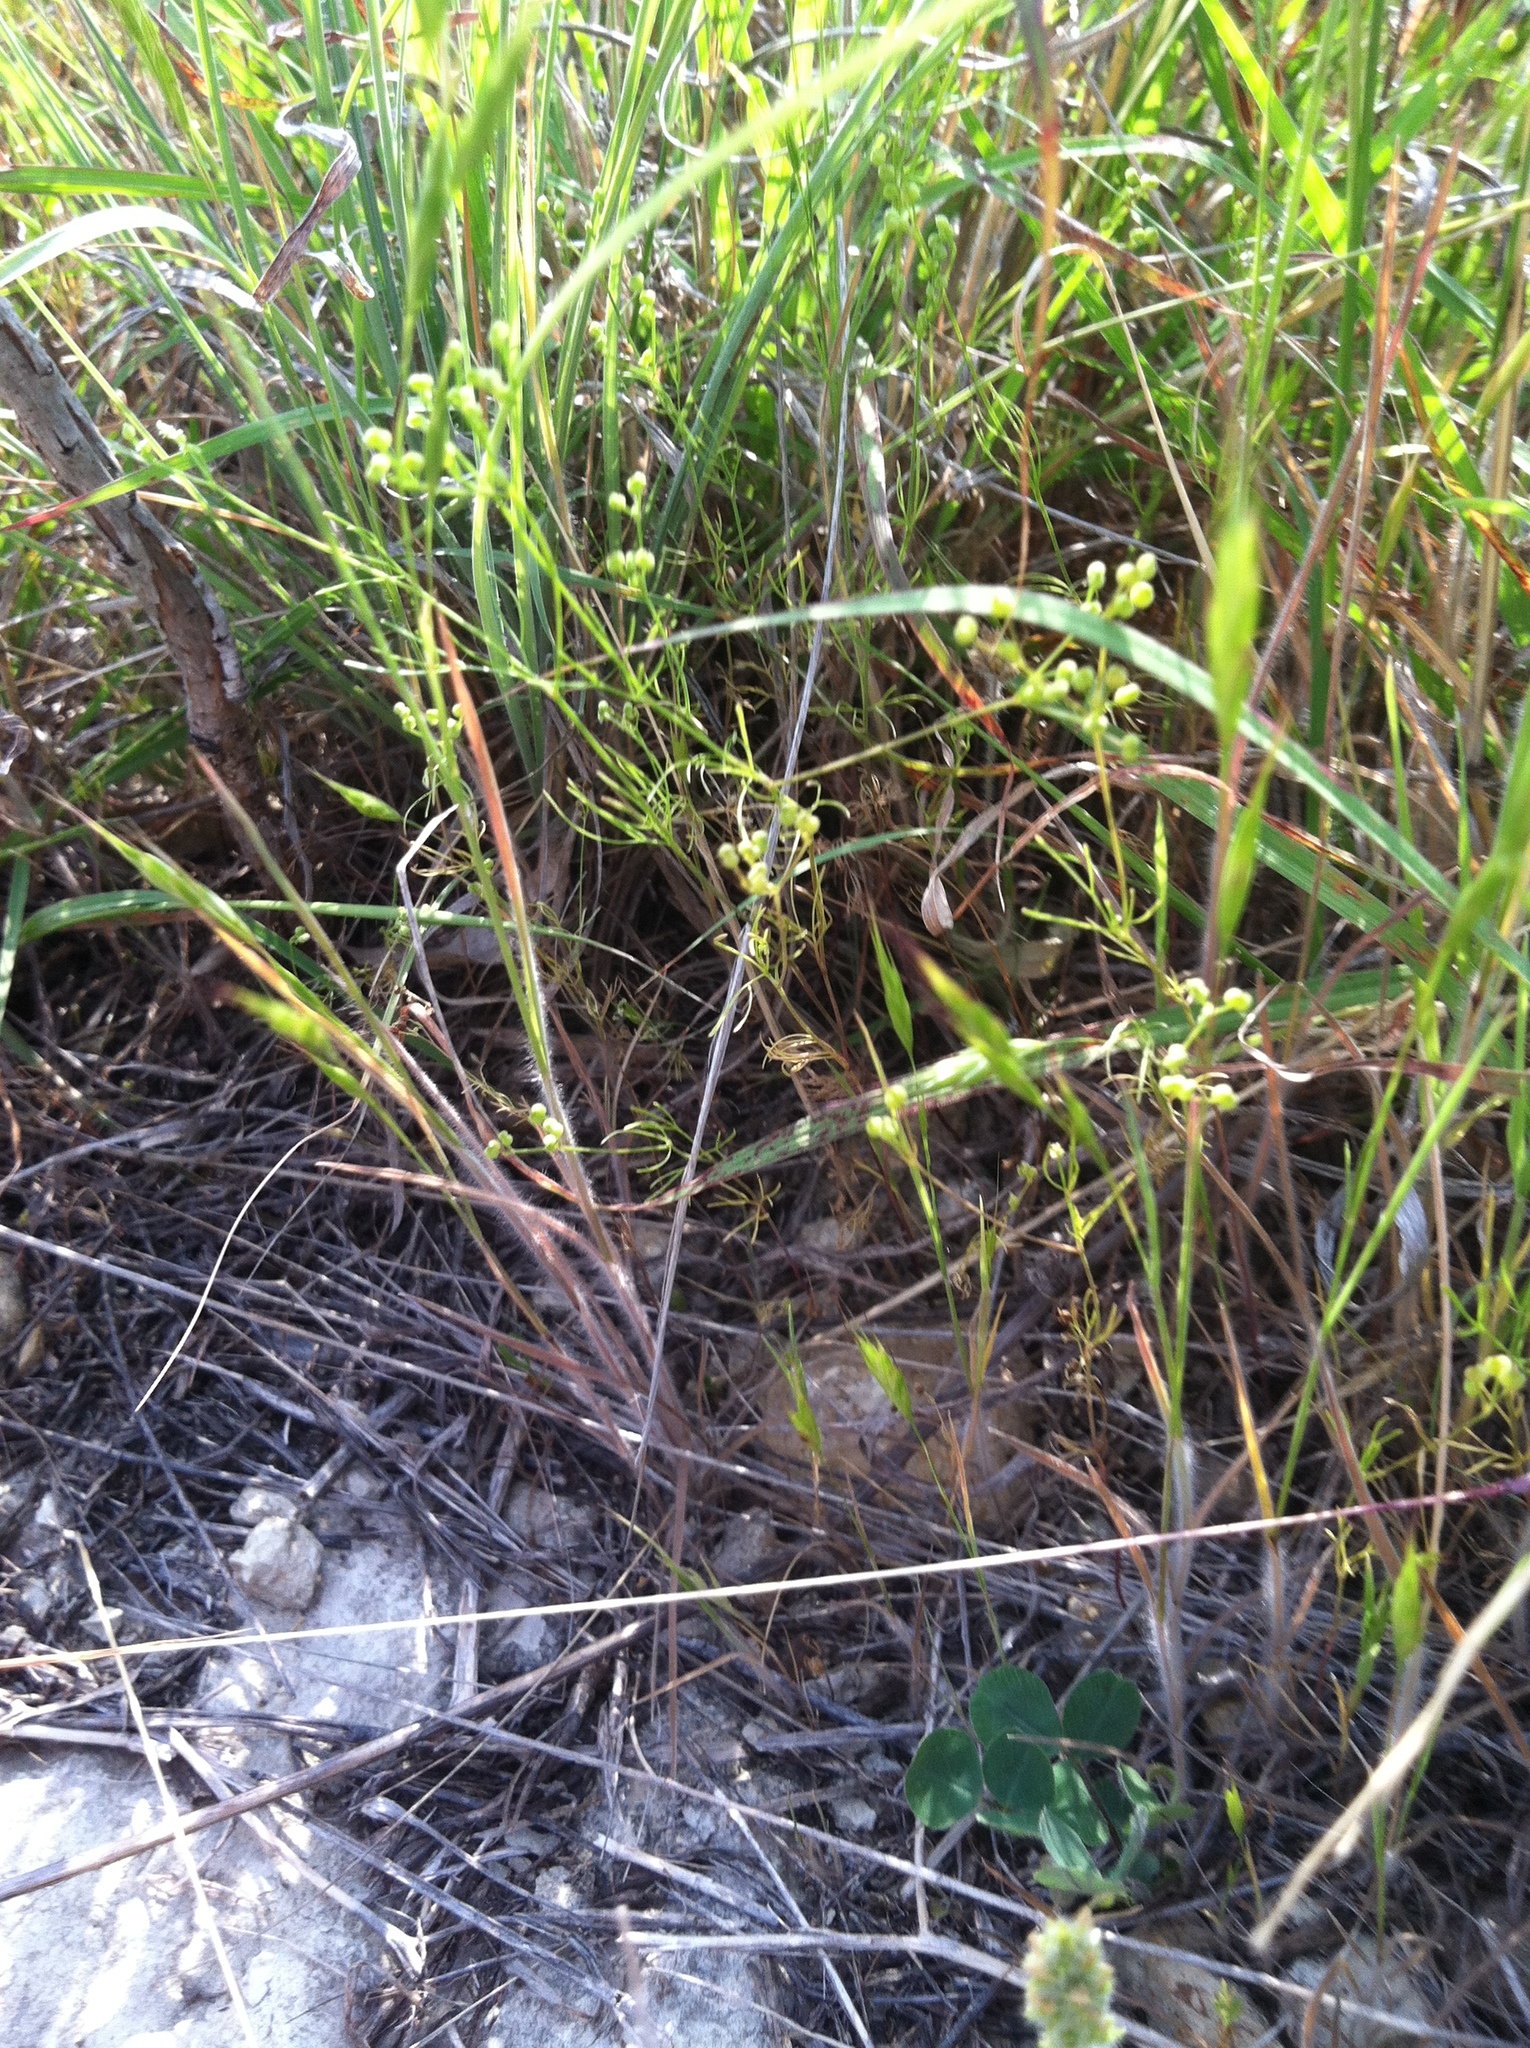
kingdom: Plantae
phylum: Tracheophyta
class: Magnoliopsida
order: Apiales
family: Apiaceae
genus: Spermolepis
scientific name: Spermolepis echinata
